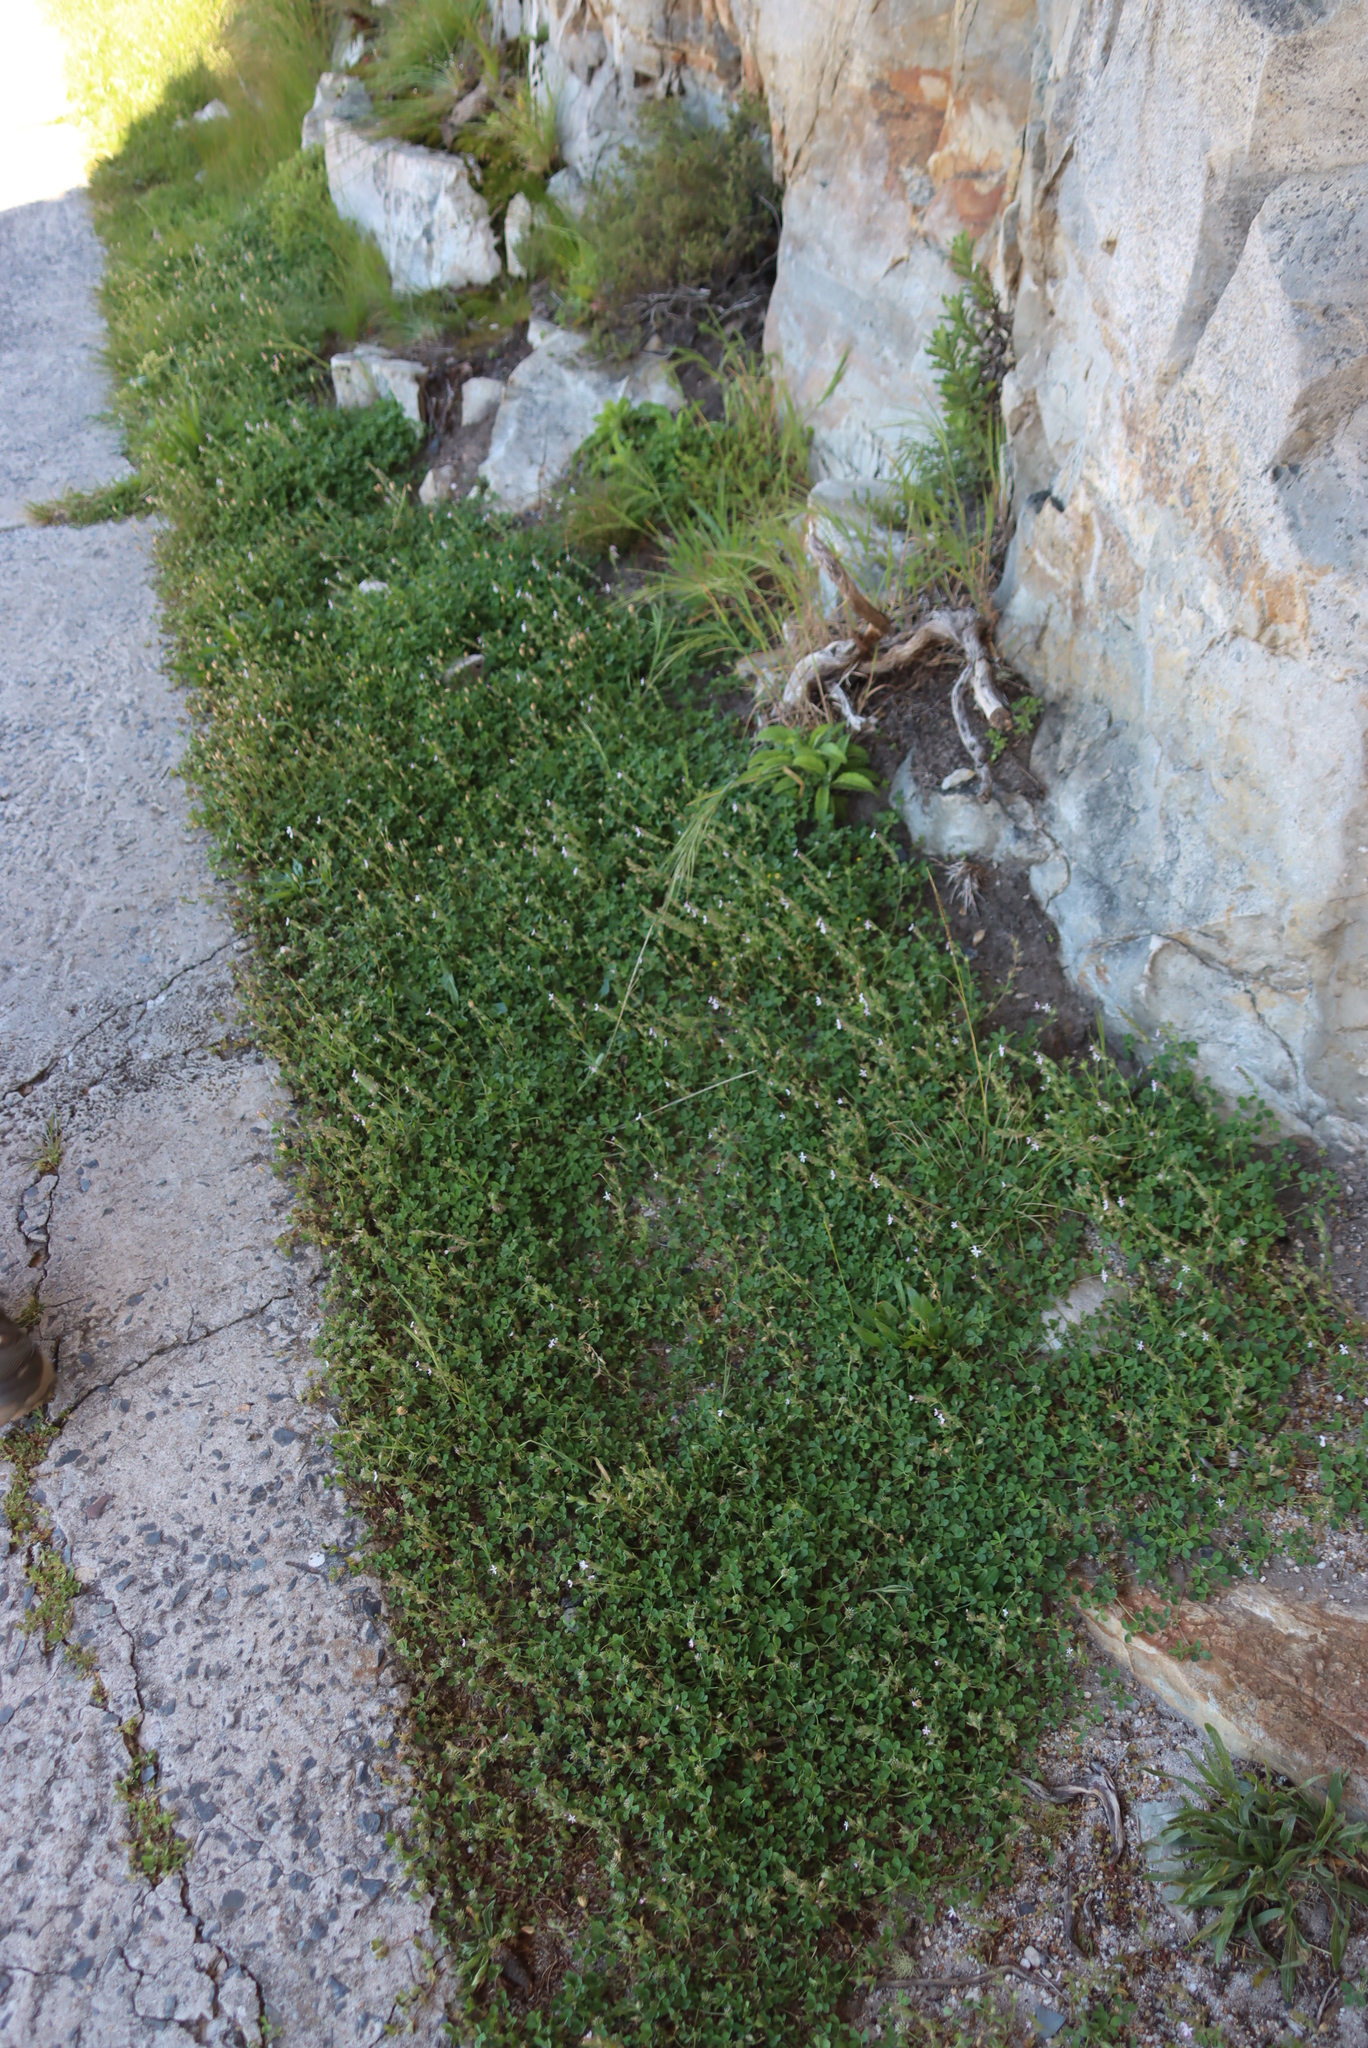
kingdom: Plantae
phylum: Tracheophyta
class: Magnoliopsida
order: Caryophyllales
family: Caryophyllaceae
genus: Silene
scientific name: Silene gallica
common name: Small-flowered catchfly
